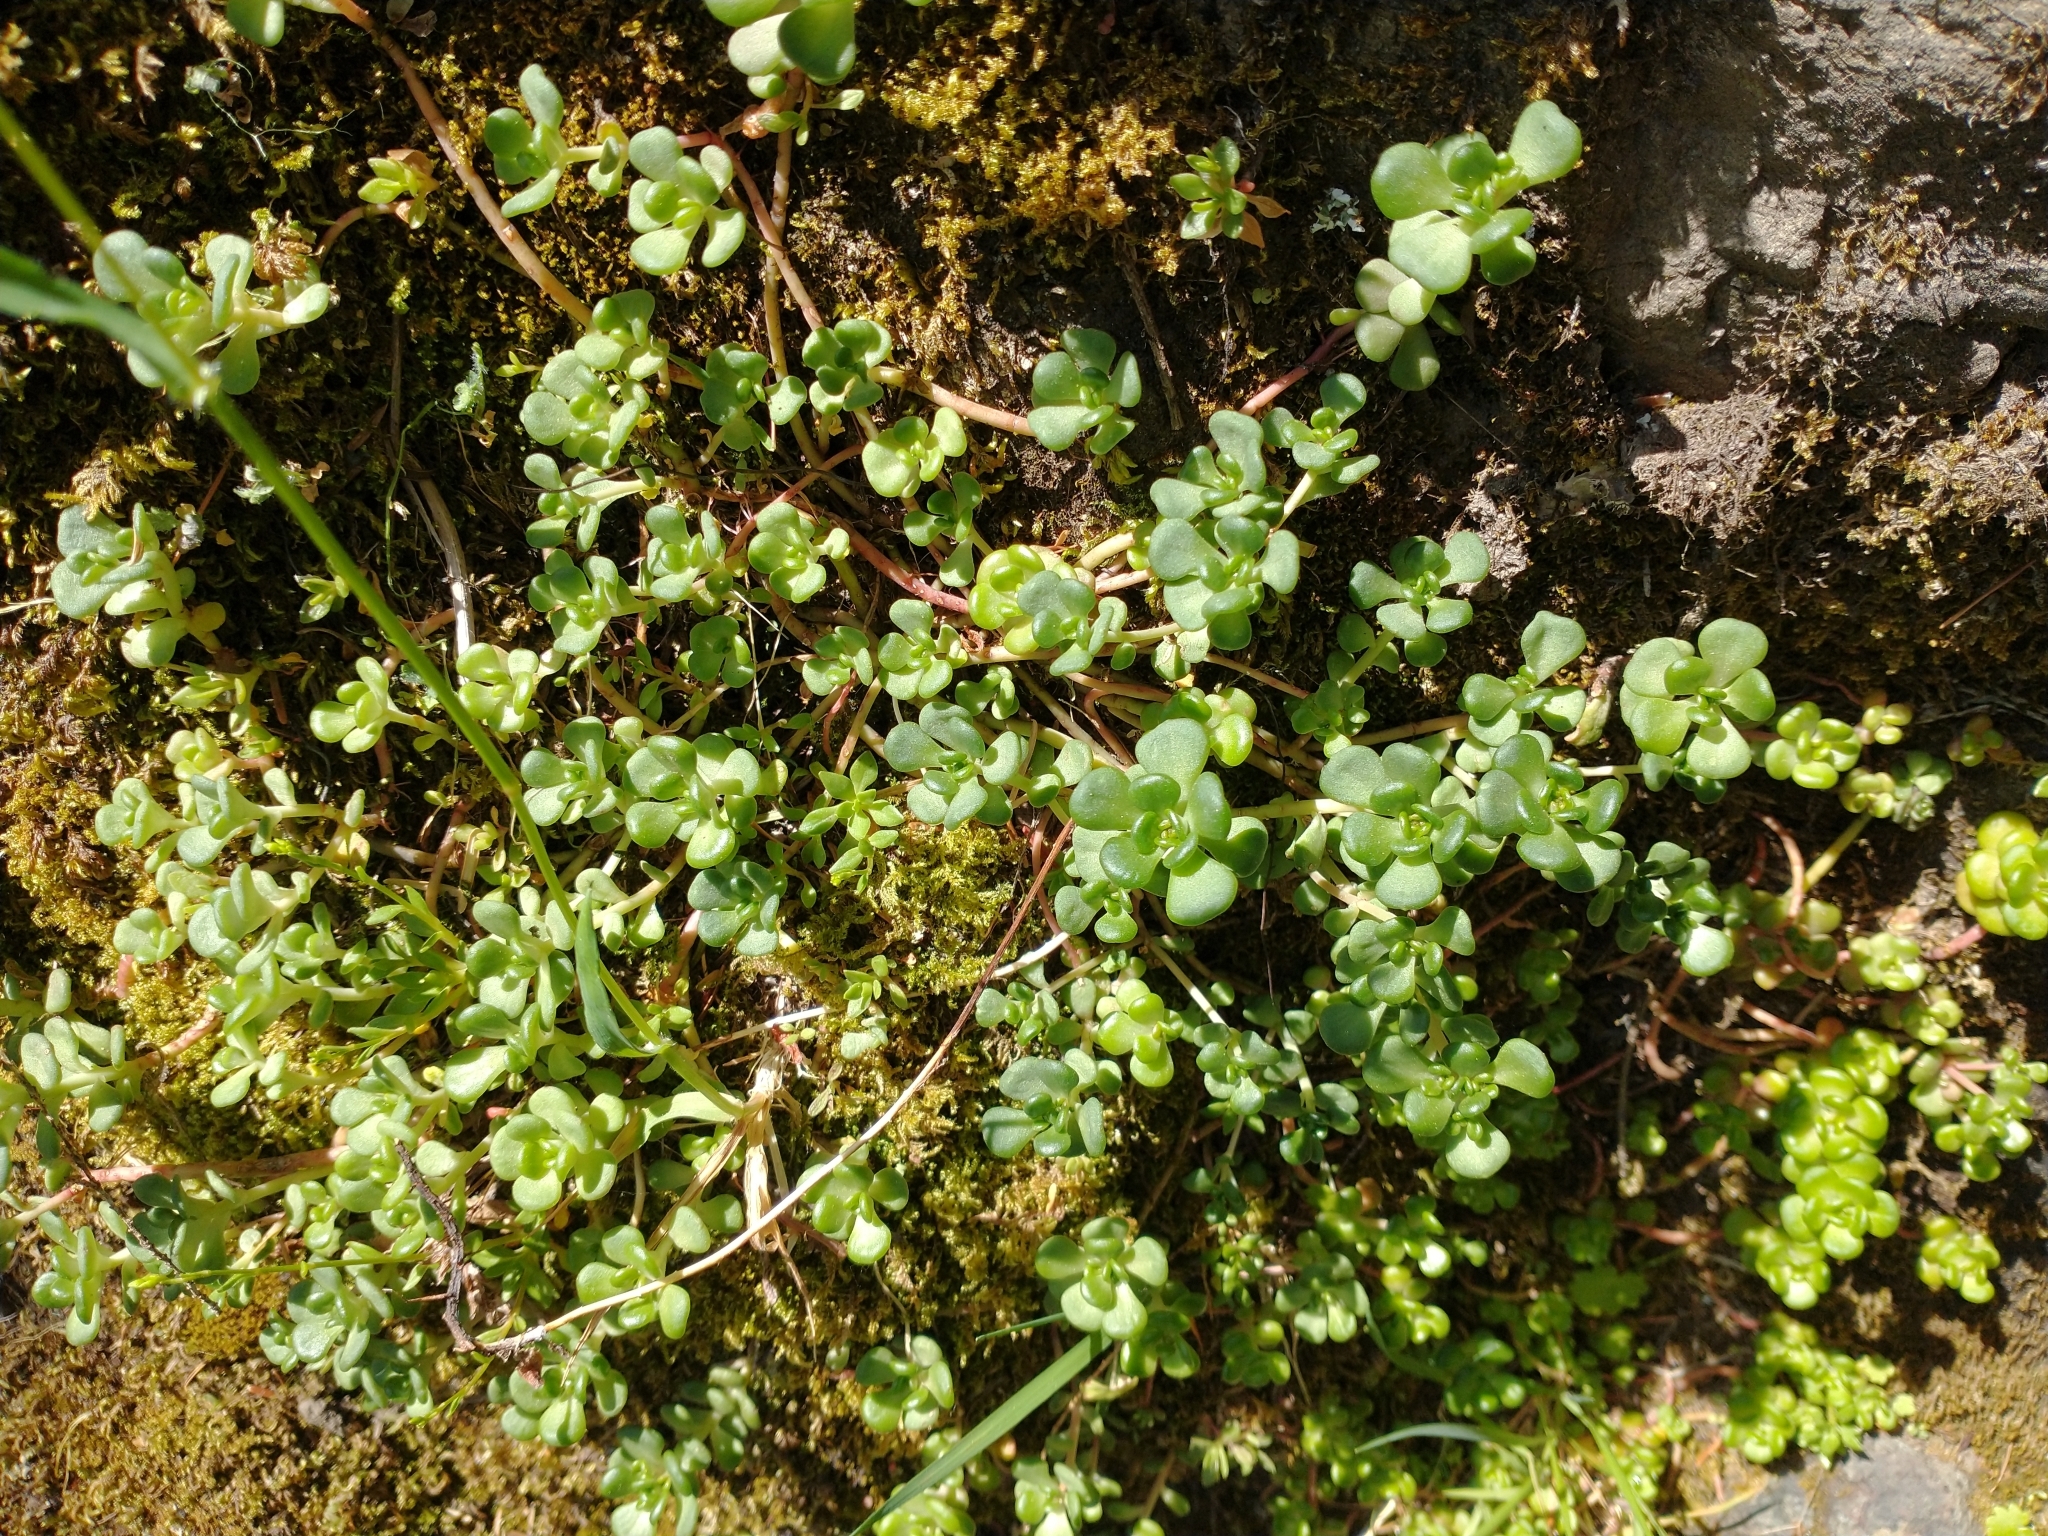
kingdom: Plantae
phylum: Tracheophyta
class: Magnoliopsida
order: Saxifragales
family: Crassulaceae
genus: Sedum
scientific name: Sedum oreganum
